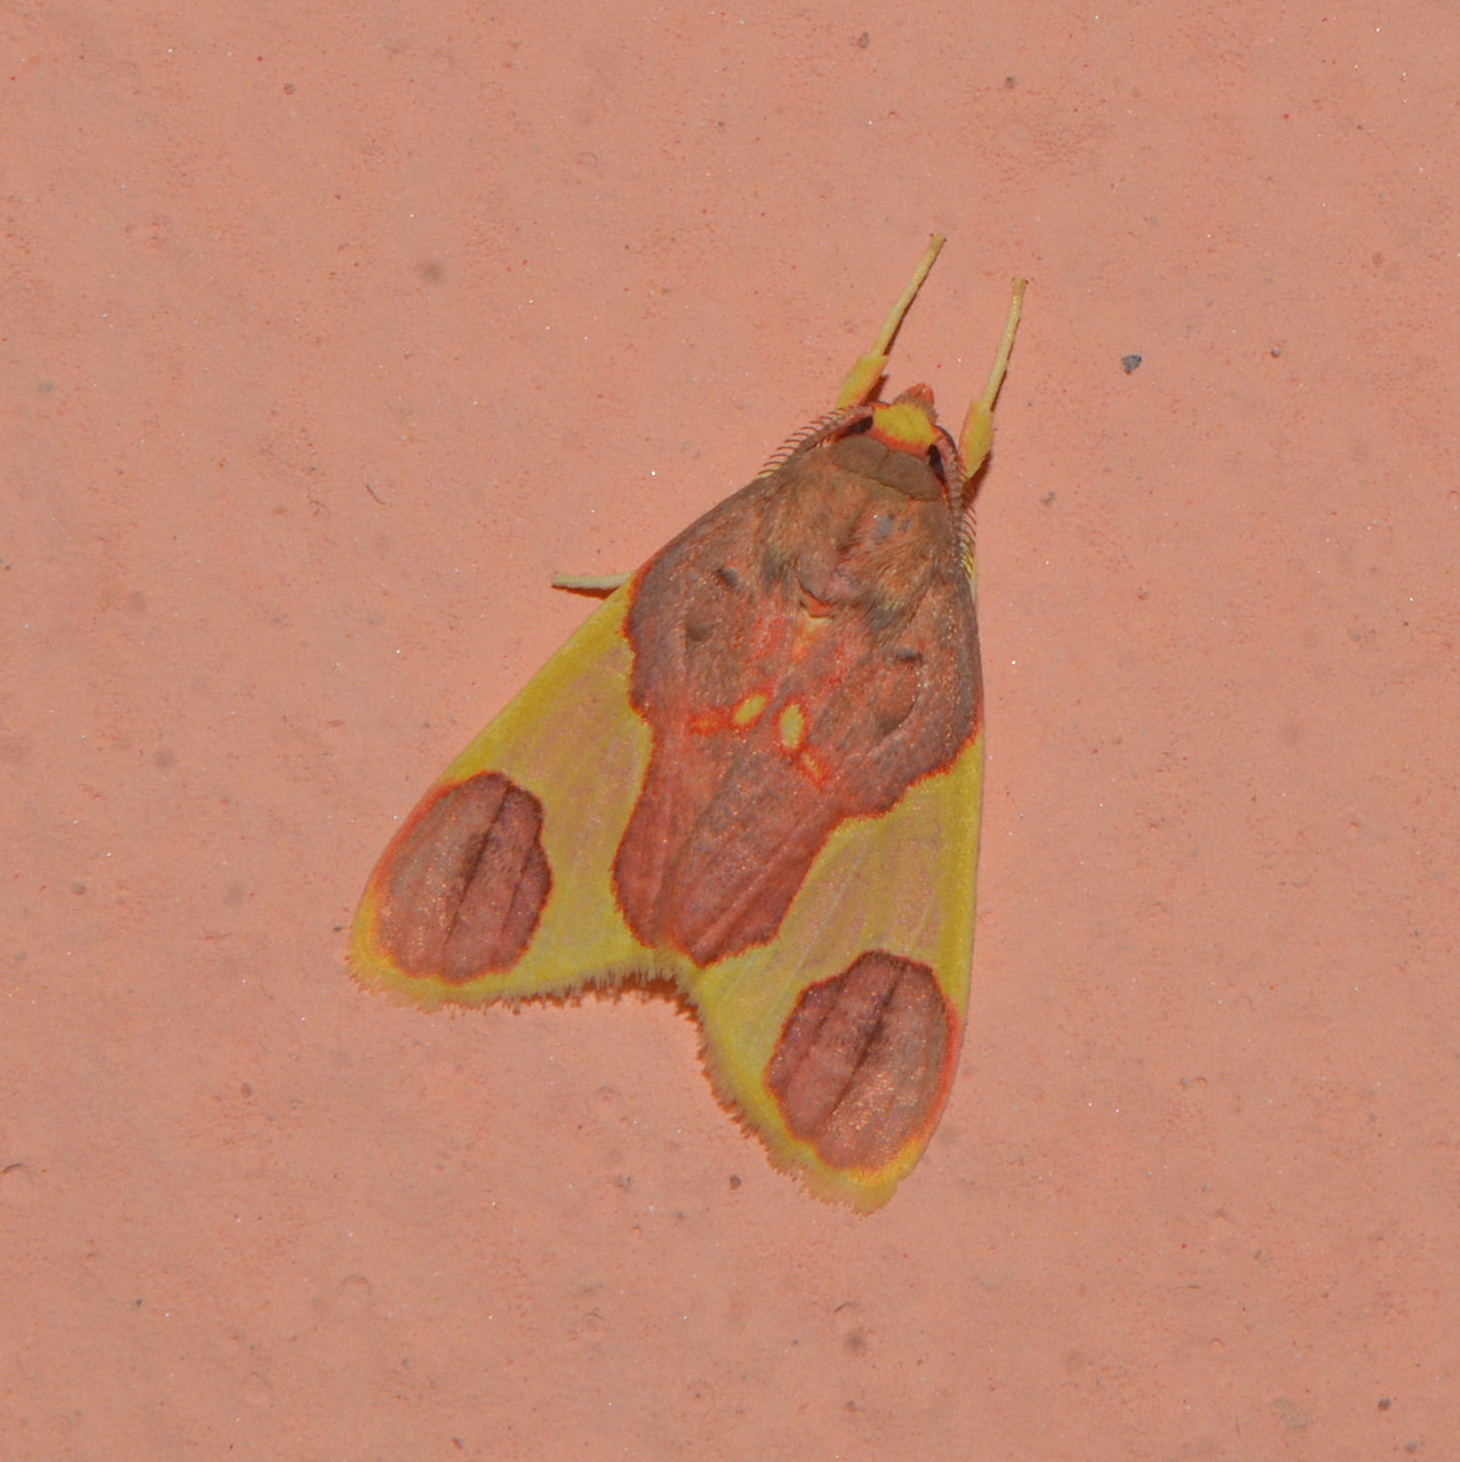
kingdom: Animalia
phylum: Arthropoda
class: Insecta
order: Lepidoptera
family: Erebidae
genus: Trichromia
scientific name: Trichromia
